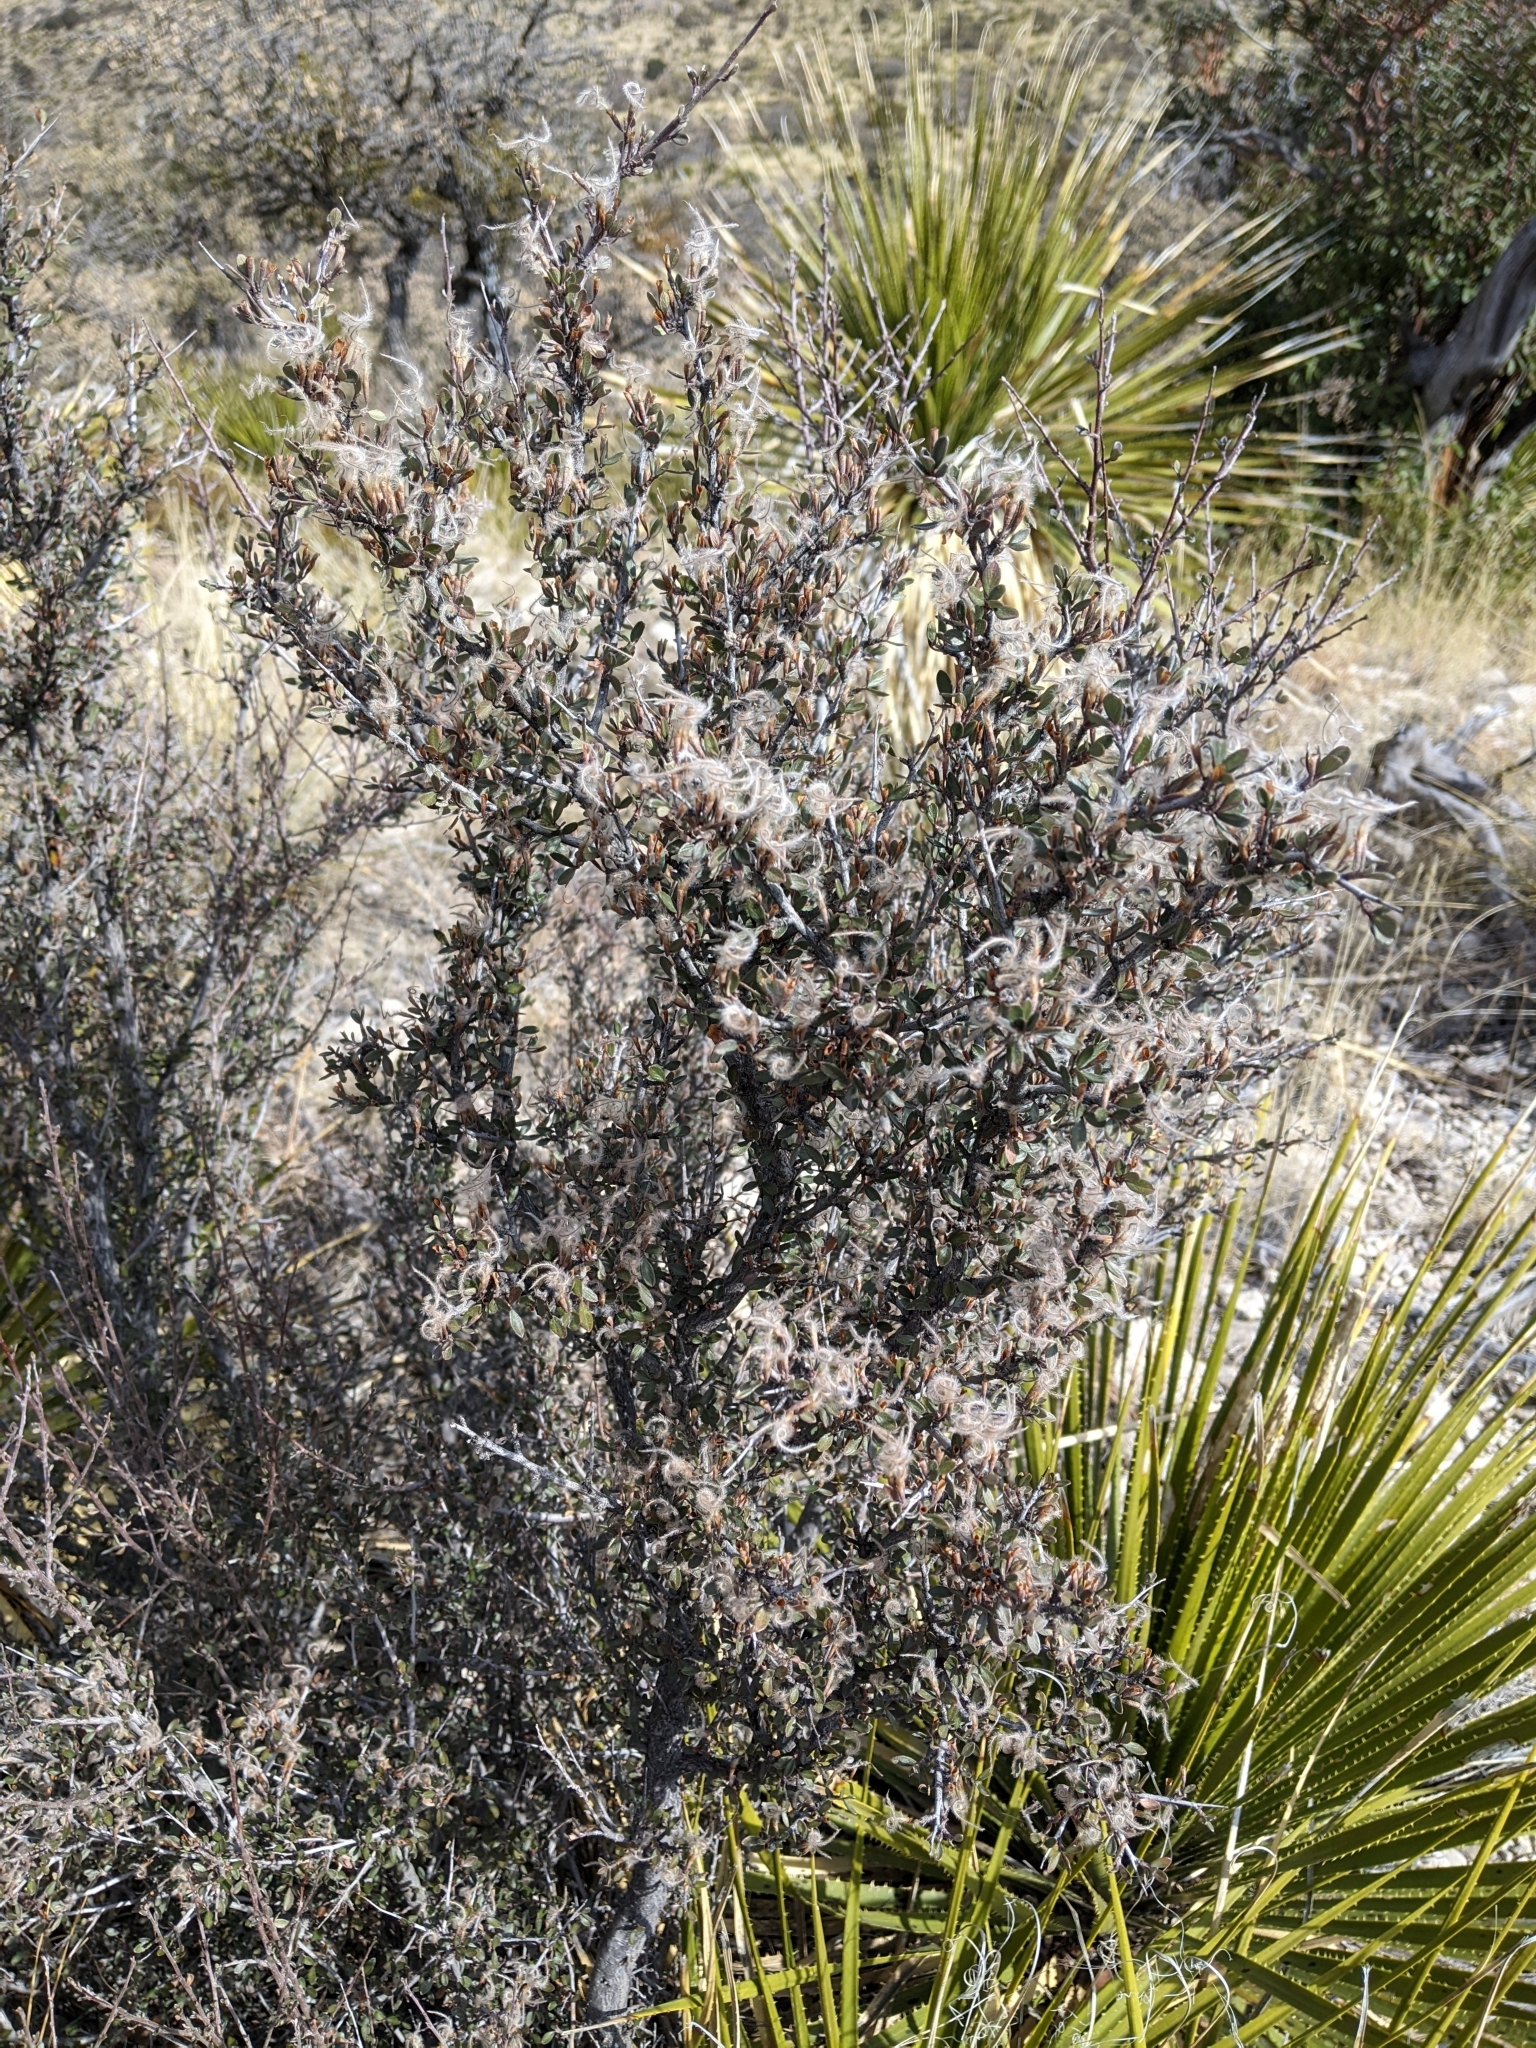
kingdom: Plantae
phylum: Tracheophyta
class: Magnoliopsida
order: Rosales
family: Rosaceae
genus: Cercocarpus
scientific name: Cercocarpus breviflorus
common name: Wright's mountain-mahogany
